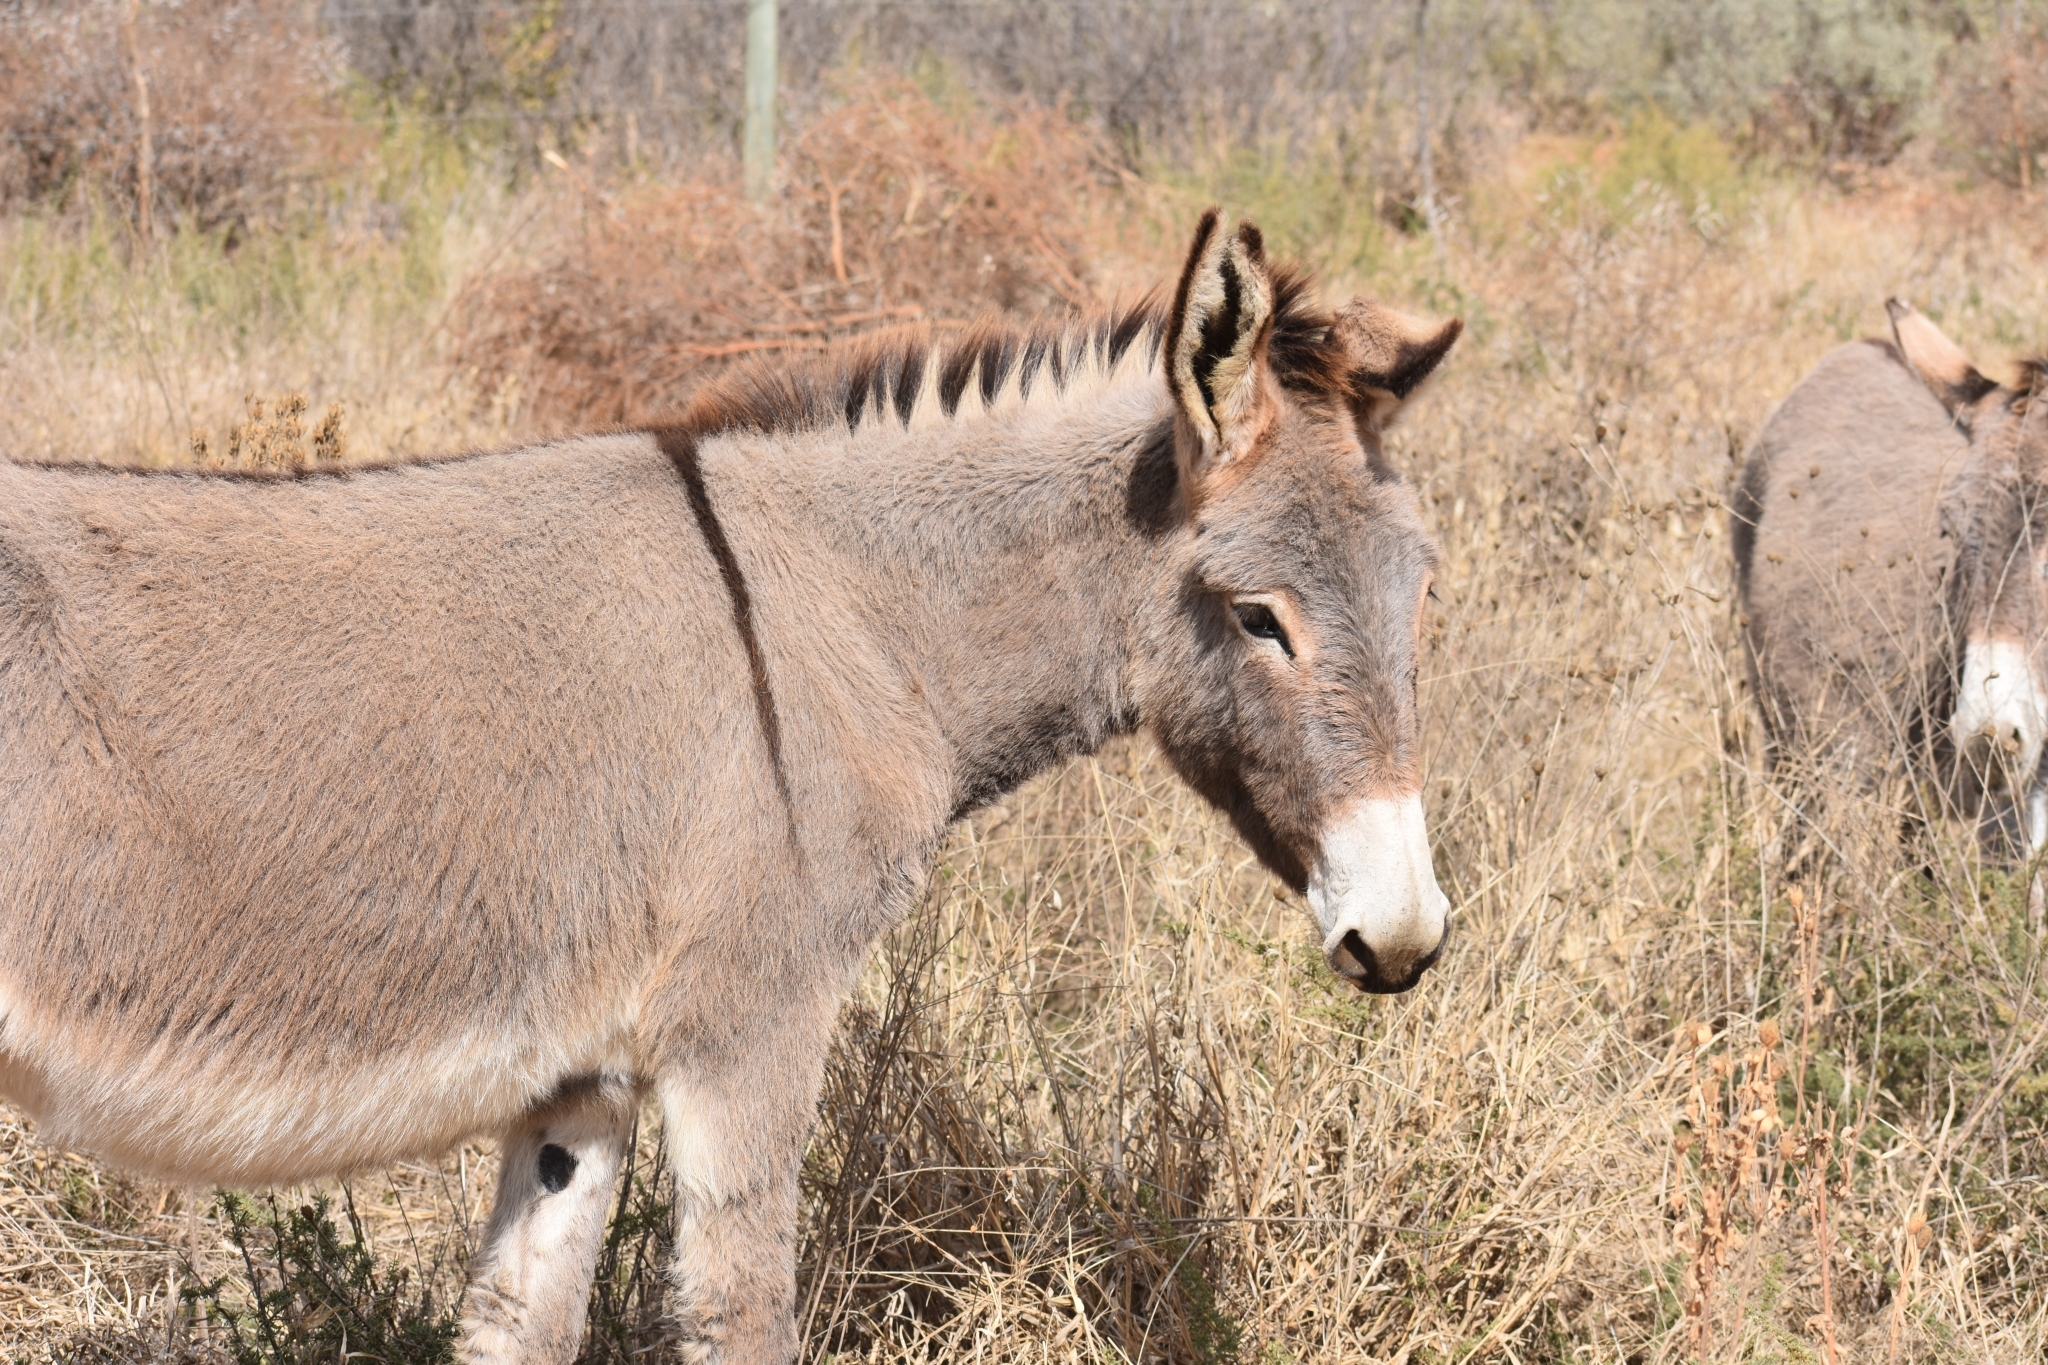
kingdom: Animalia
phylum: Chordata
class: Mammalia
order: Perissodactyla
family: Equidae
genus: Equus
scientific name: Equus asinus
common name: Ass
